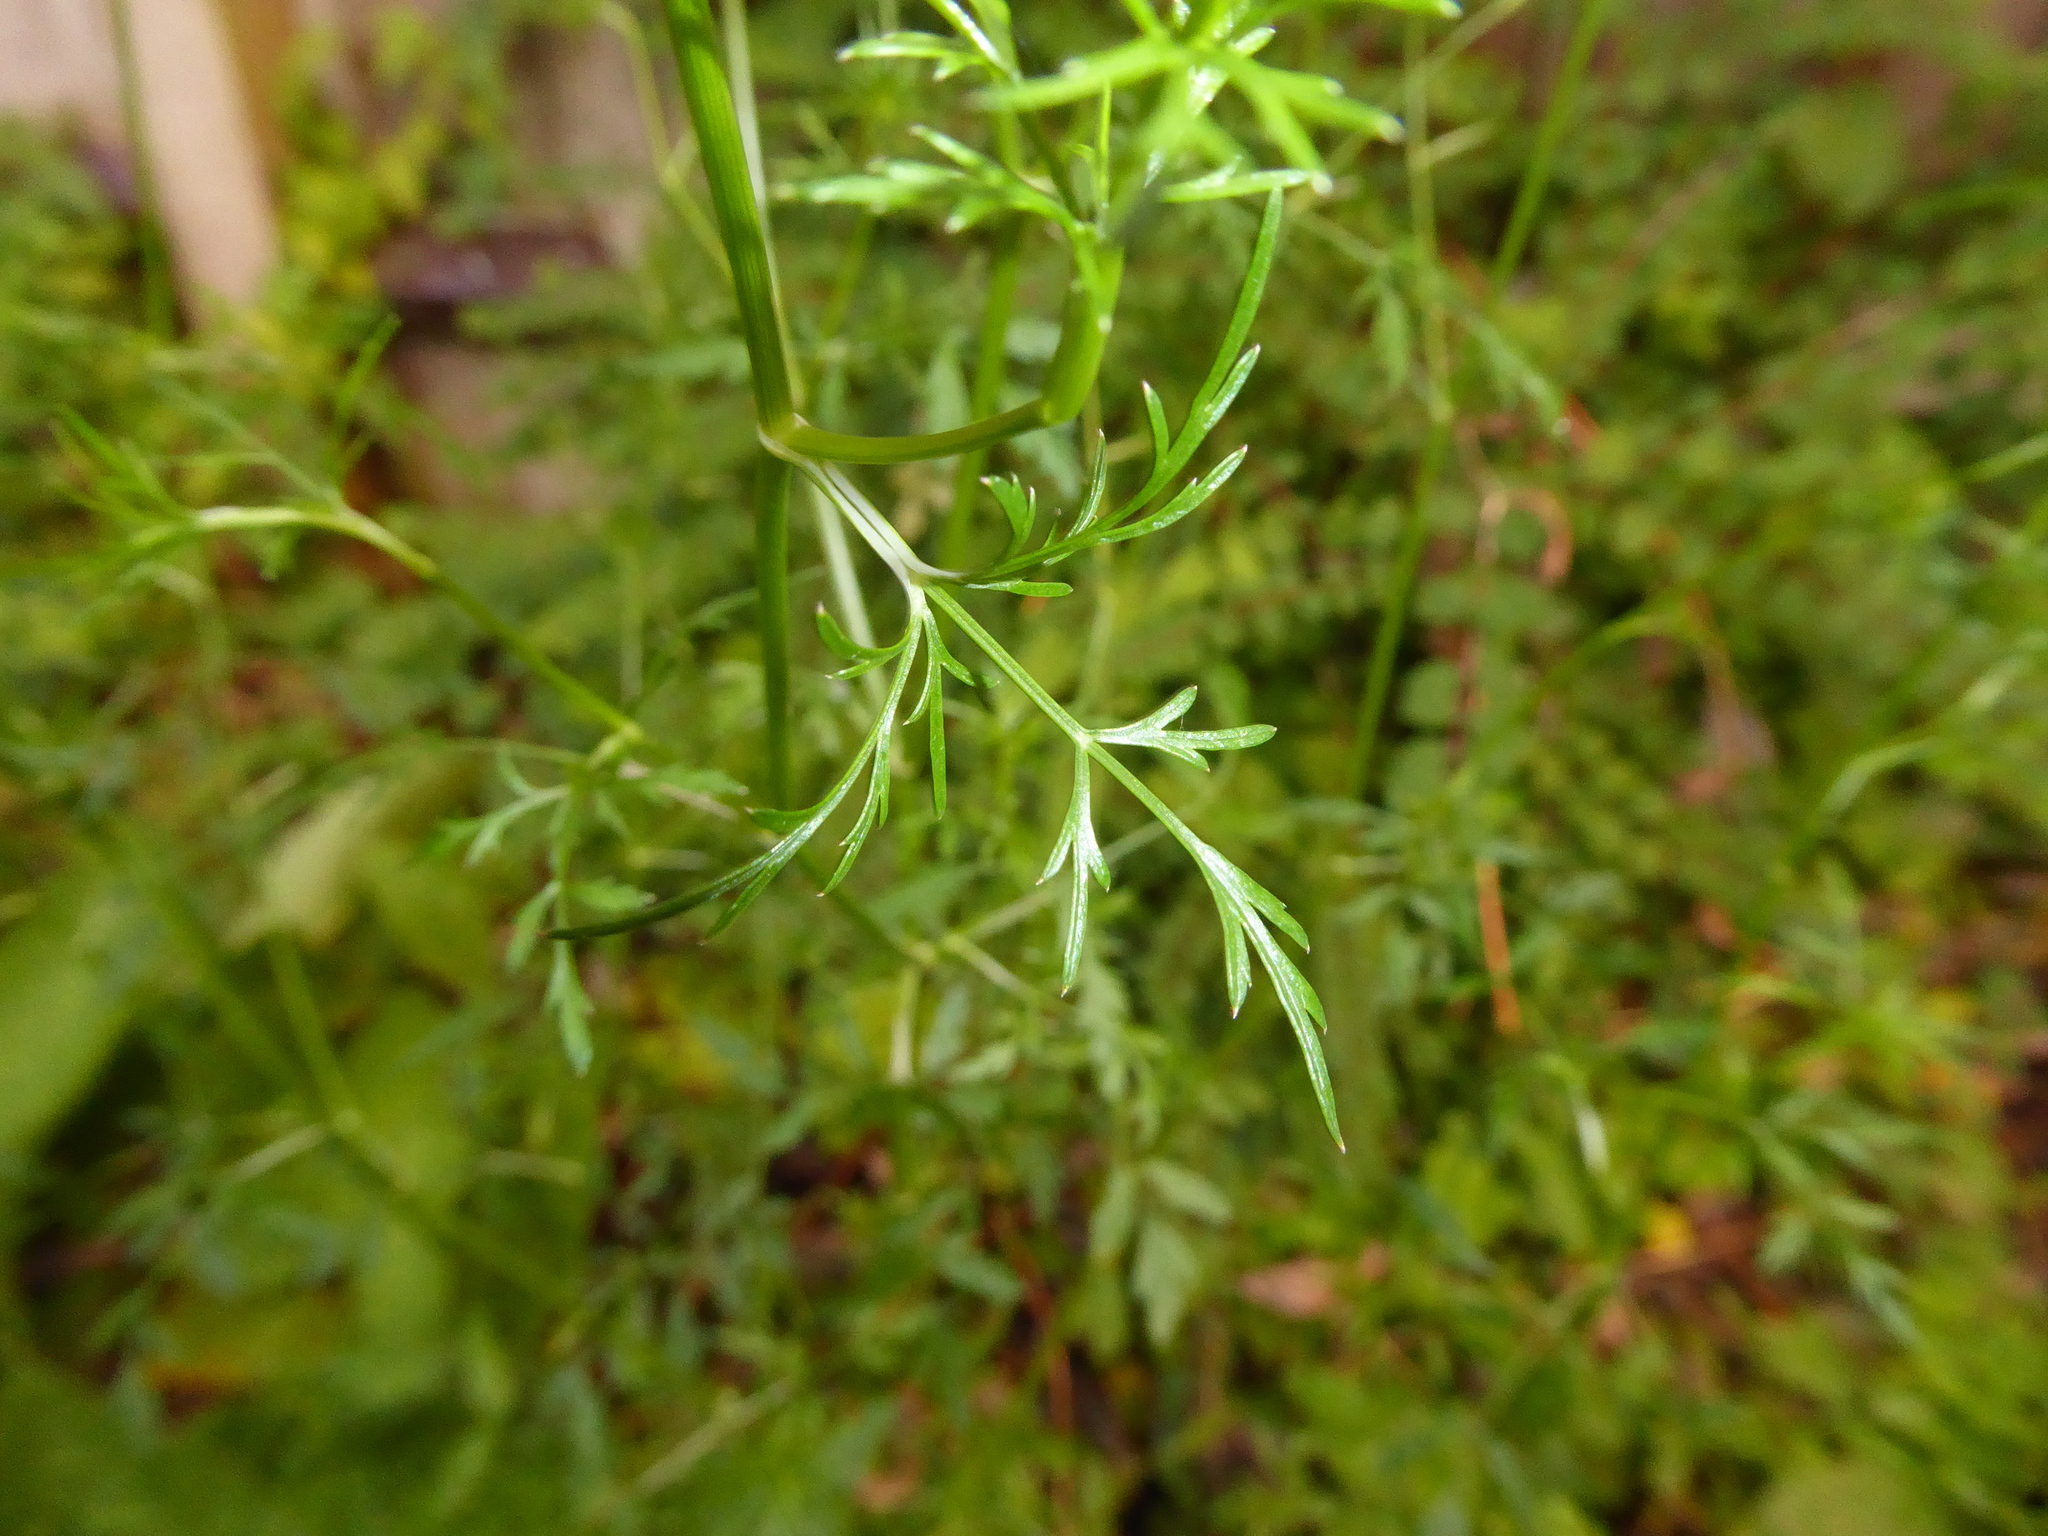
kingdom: Plantae
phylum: Tracheophyta
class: Magnoliopsida
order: Apiales
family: Apiaceae
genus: Sison
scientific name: Sison amomum
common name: Stone-parsley
